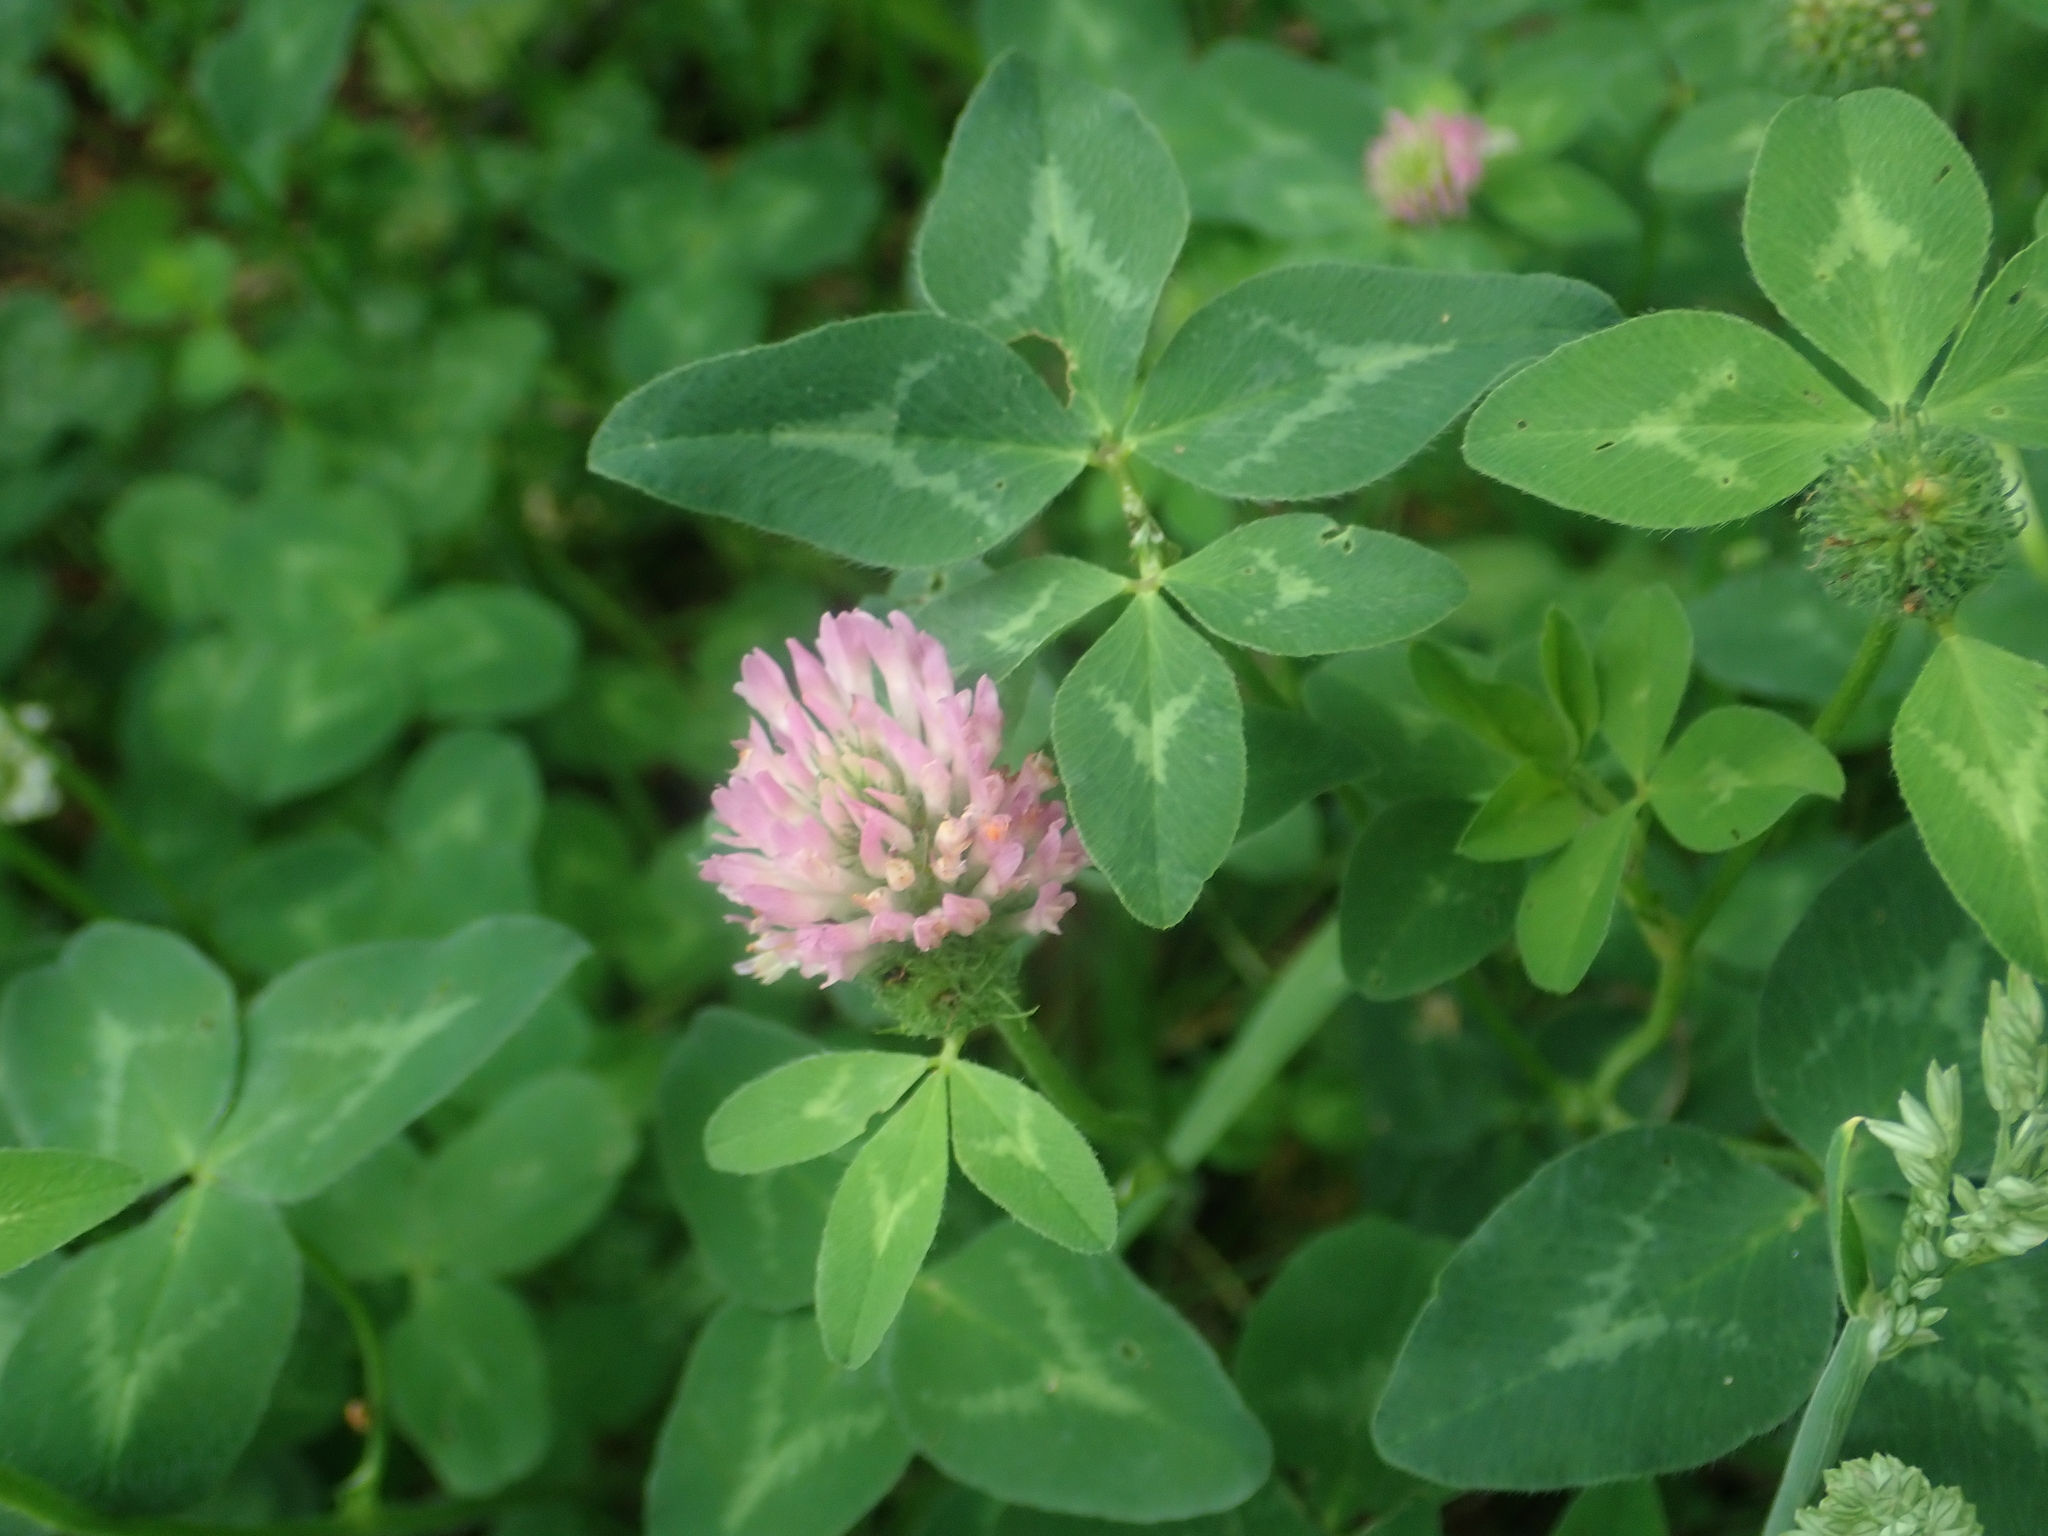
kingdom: Plantae
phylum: Tracheophyta
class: Magnoliopsida
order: Fabales
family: Fabaceae
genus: Trifolium
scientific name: Trifolium pratense
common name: Red clover
